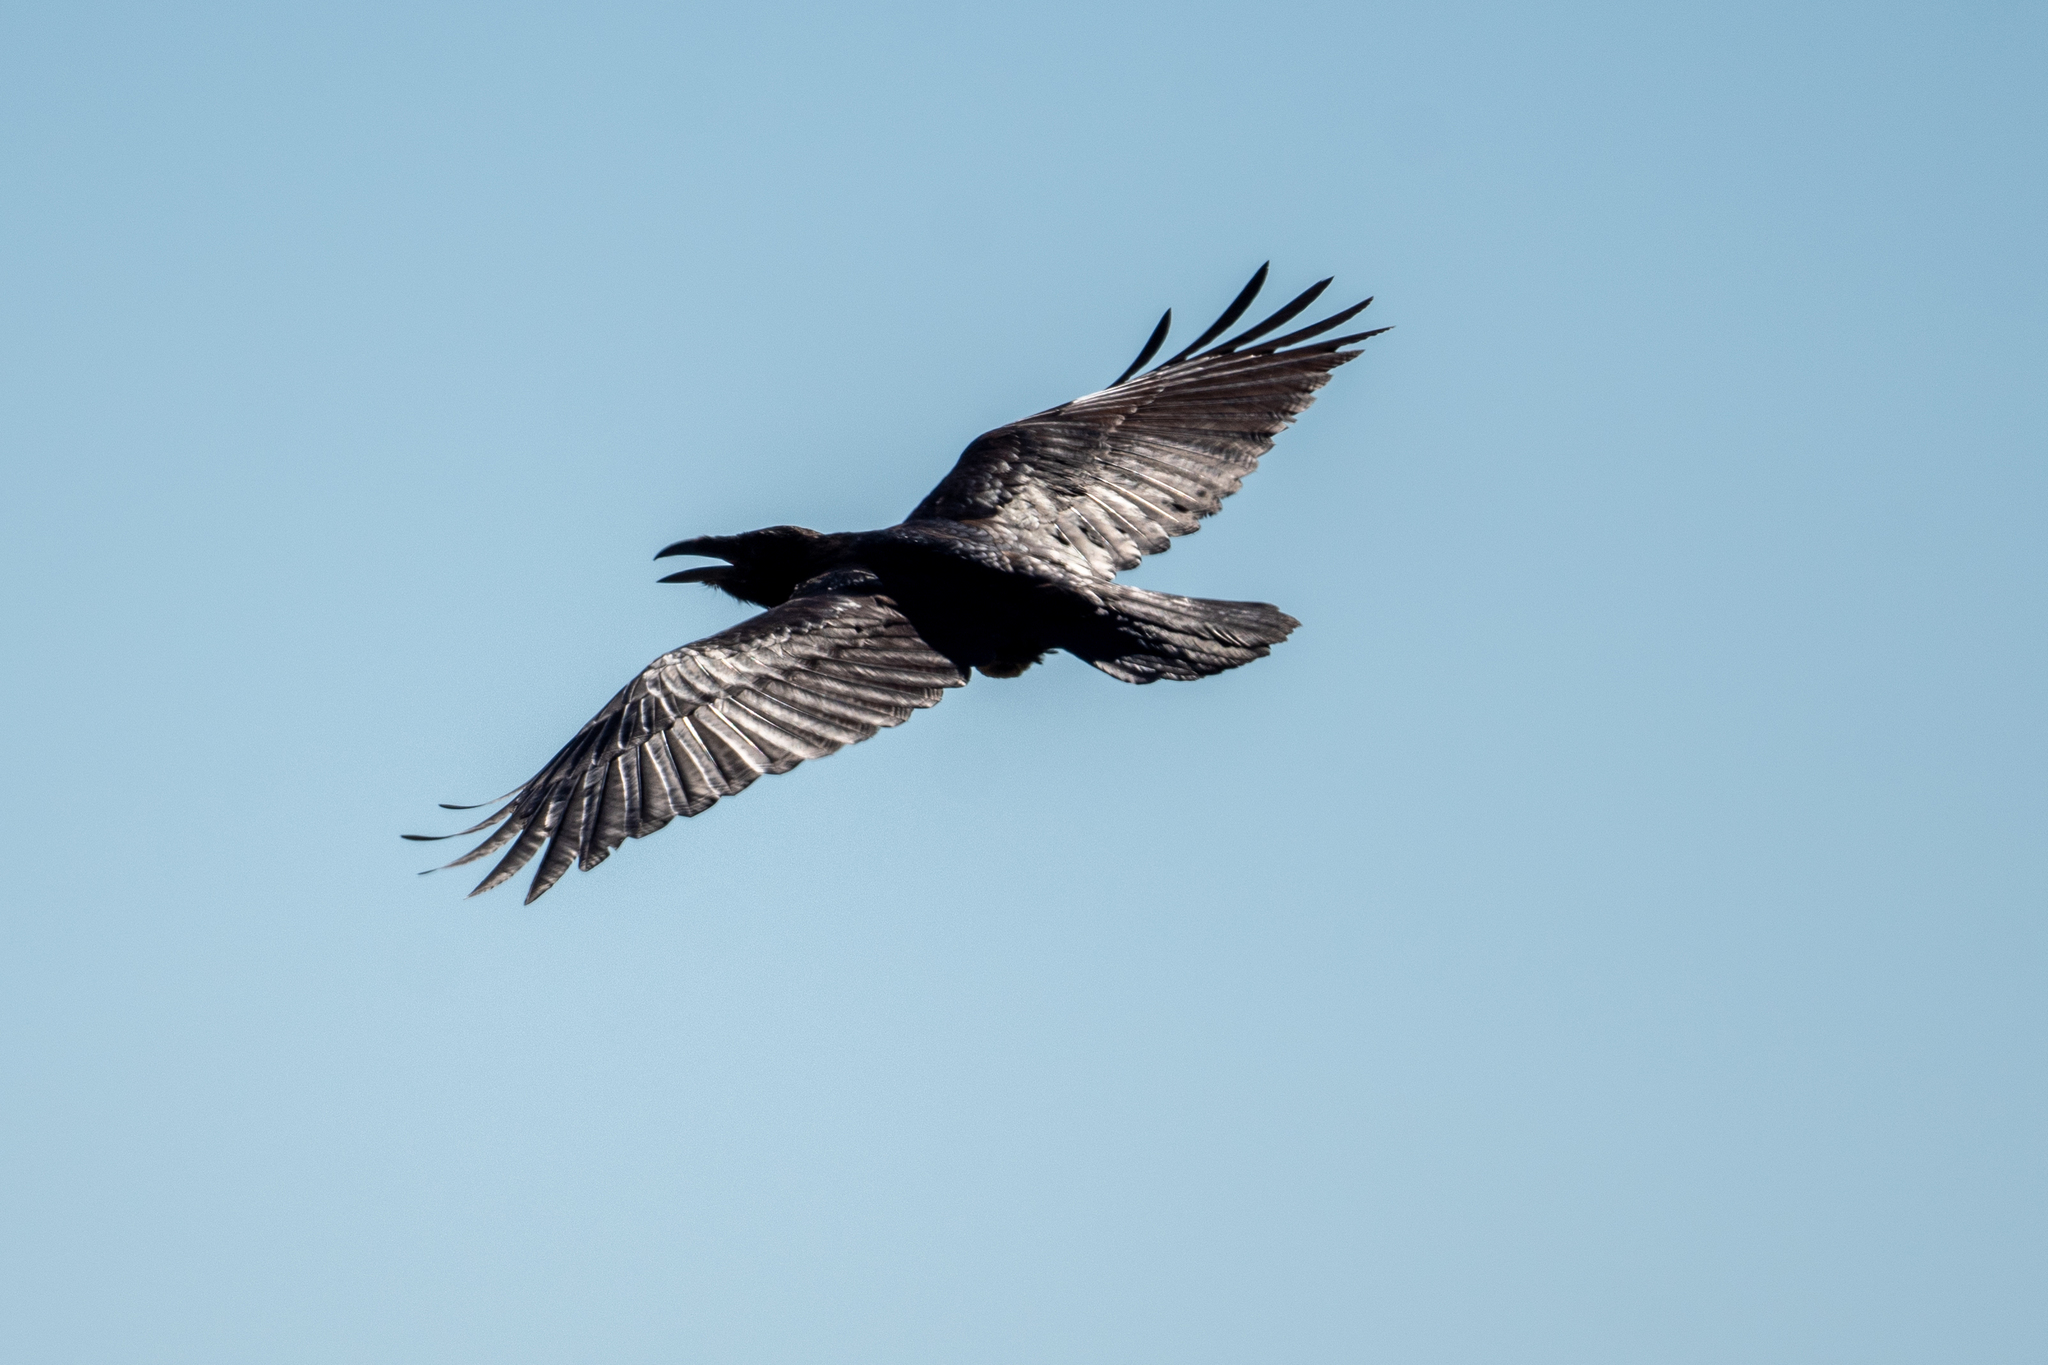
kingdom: Animalia
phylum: Chordata
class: Aves
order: Passeriformes
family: Corvidae
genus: Corvus
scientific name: Corvus corax
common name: Common raven
